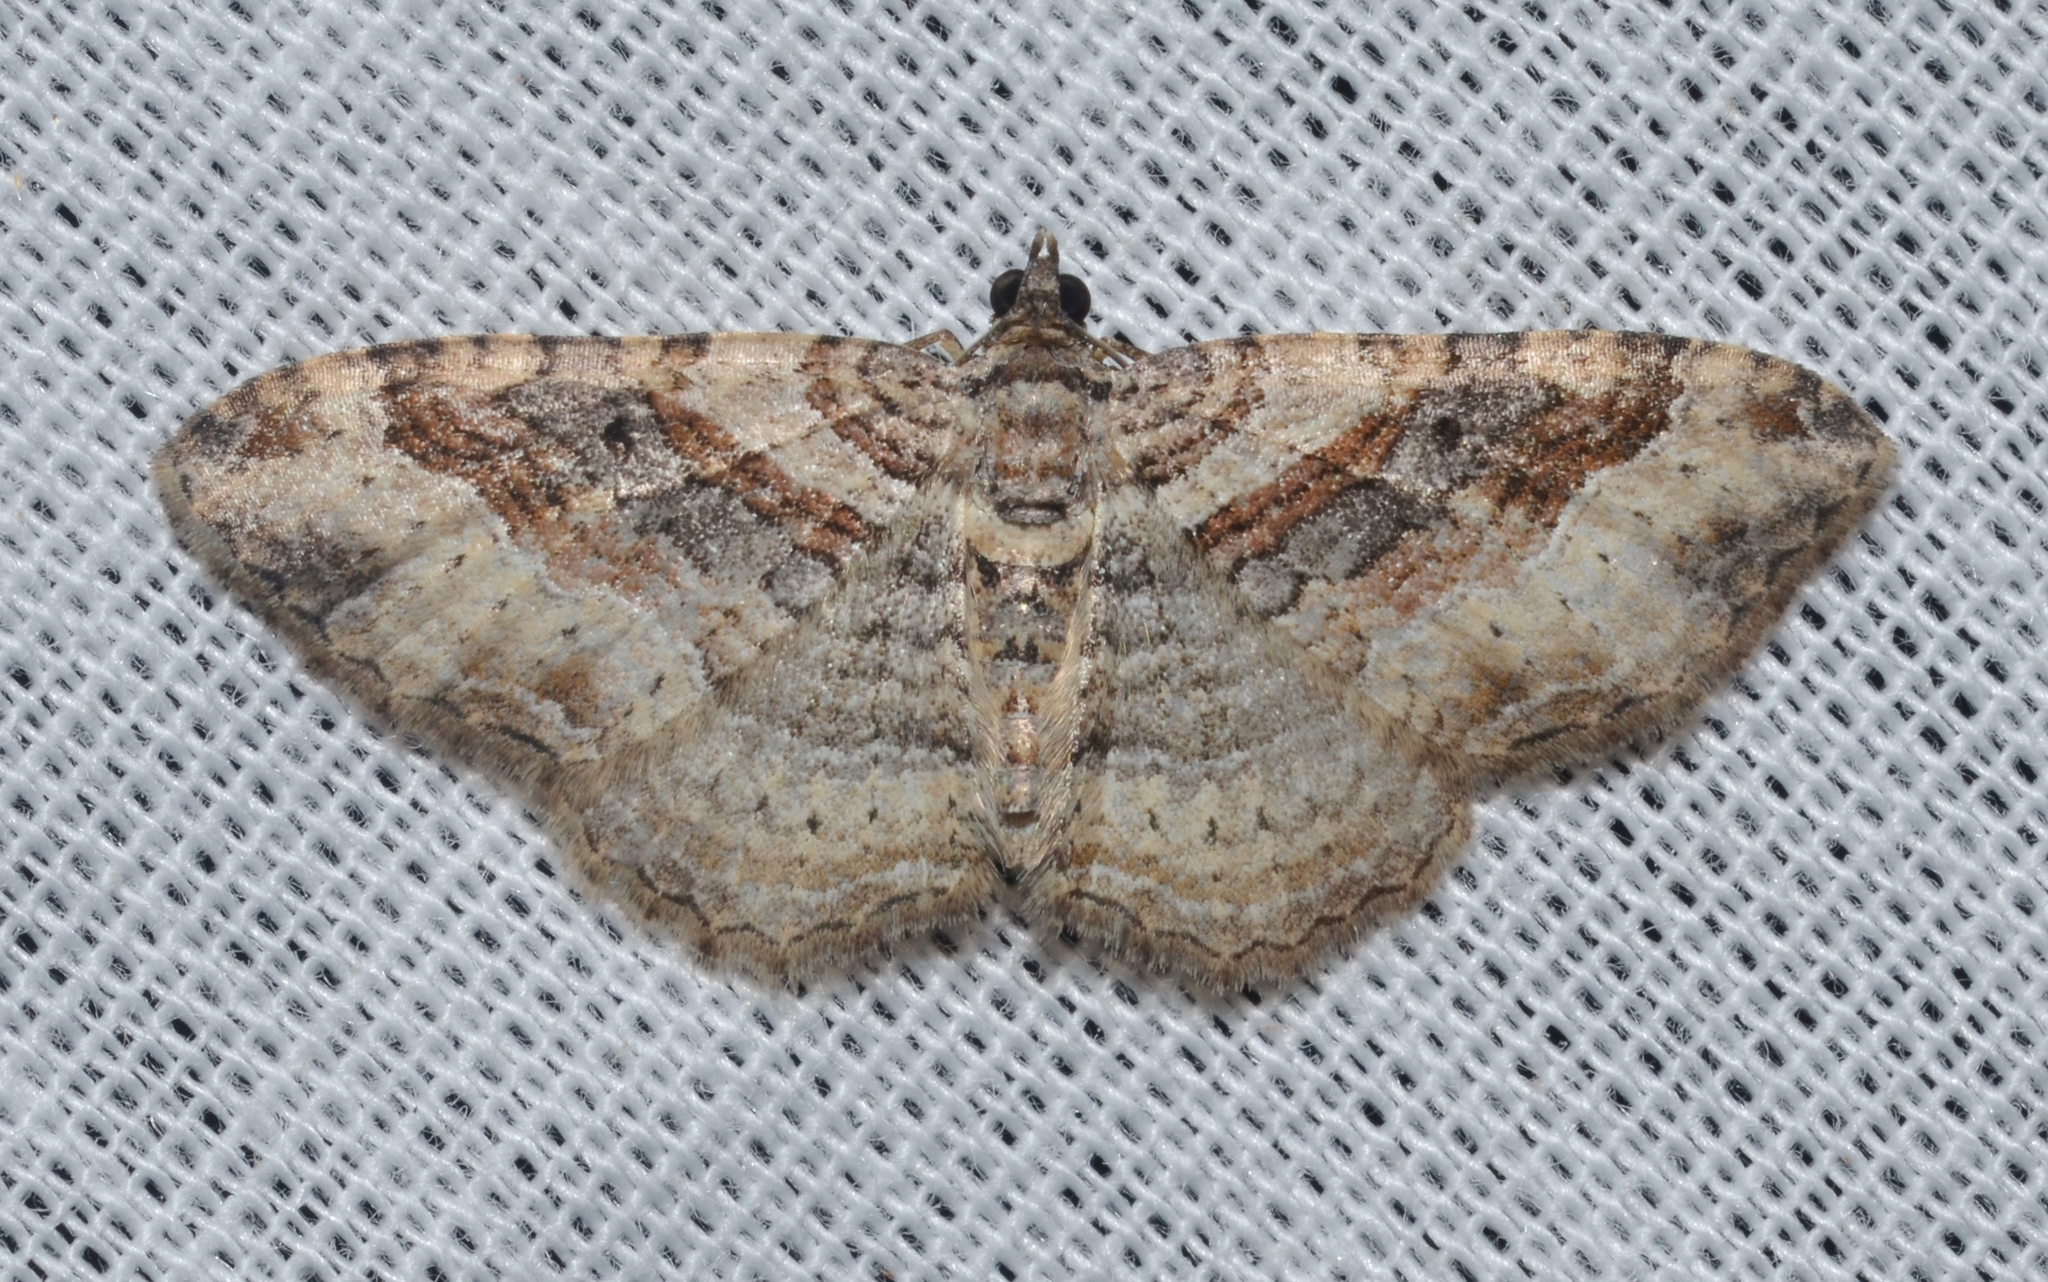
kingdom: Animalia
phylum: Arthropoda
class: Insecta
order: Lepidoptera
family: Geometridae
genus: Costaconvexa
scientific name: Costaconvexa centrostrigaria
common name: Bent-line carpet
